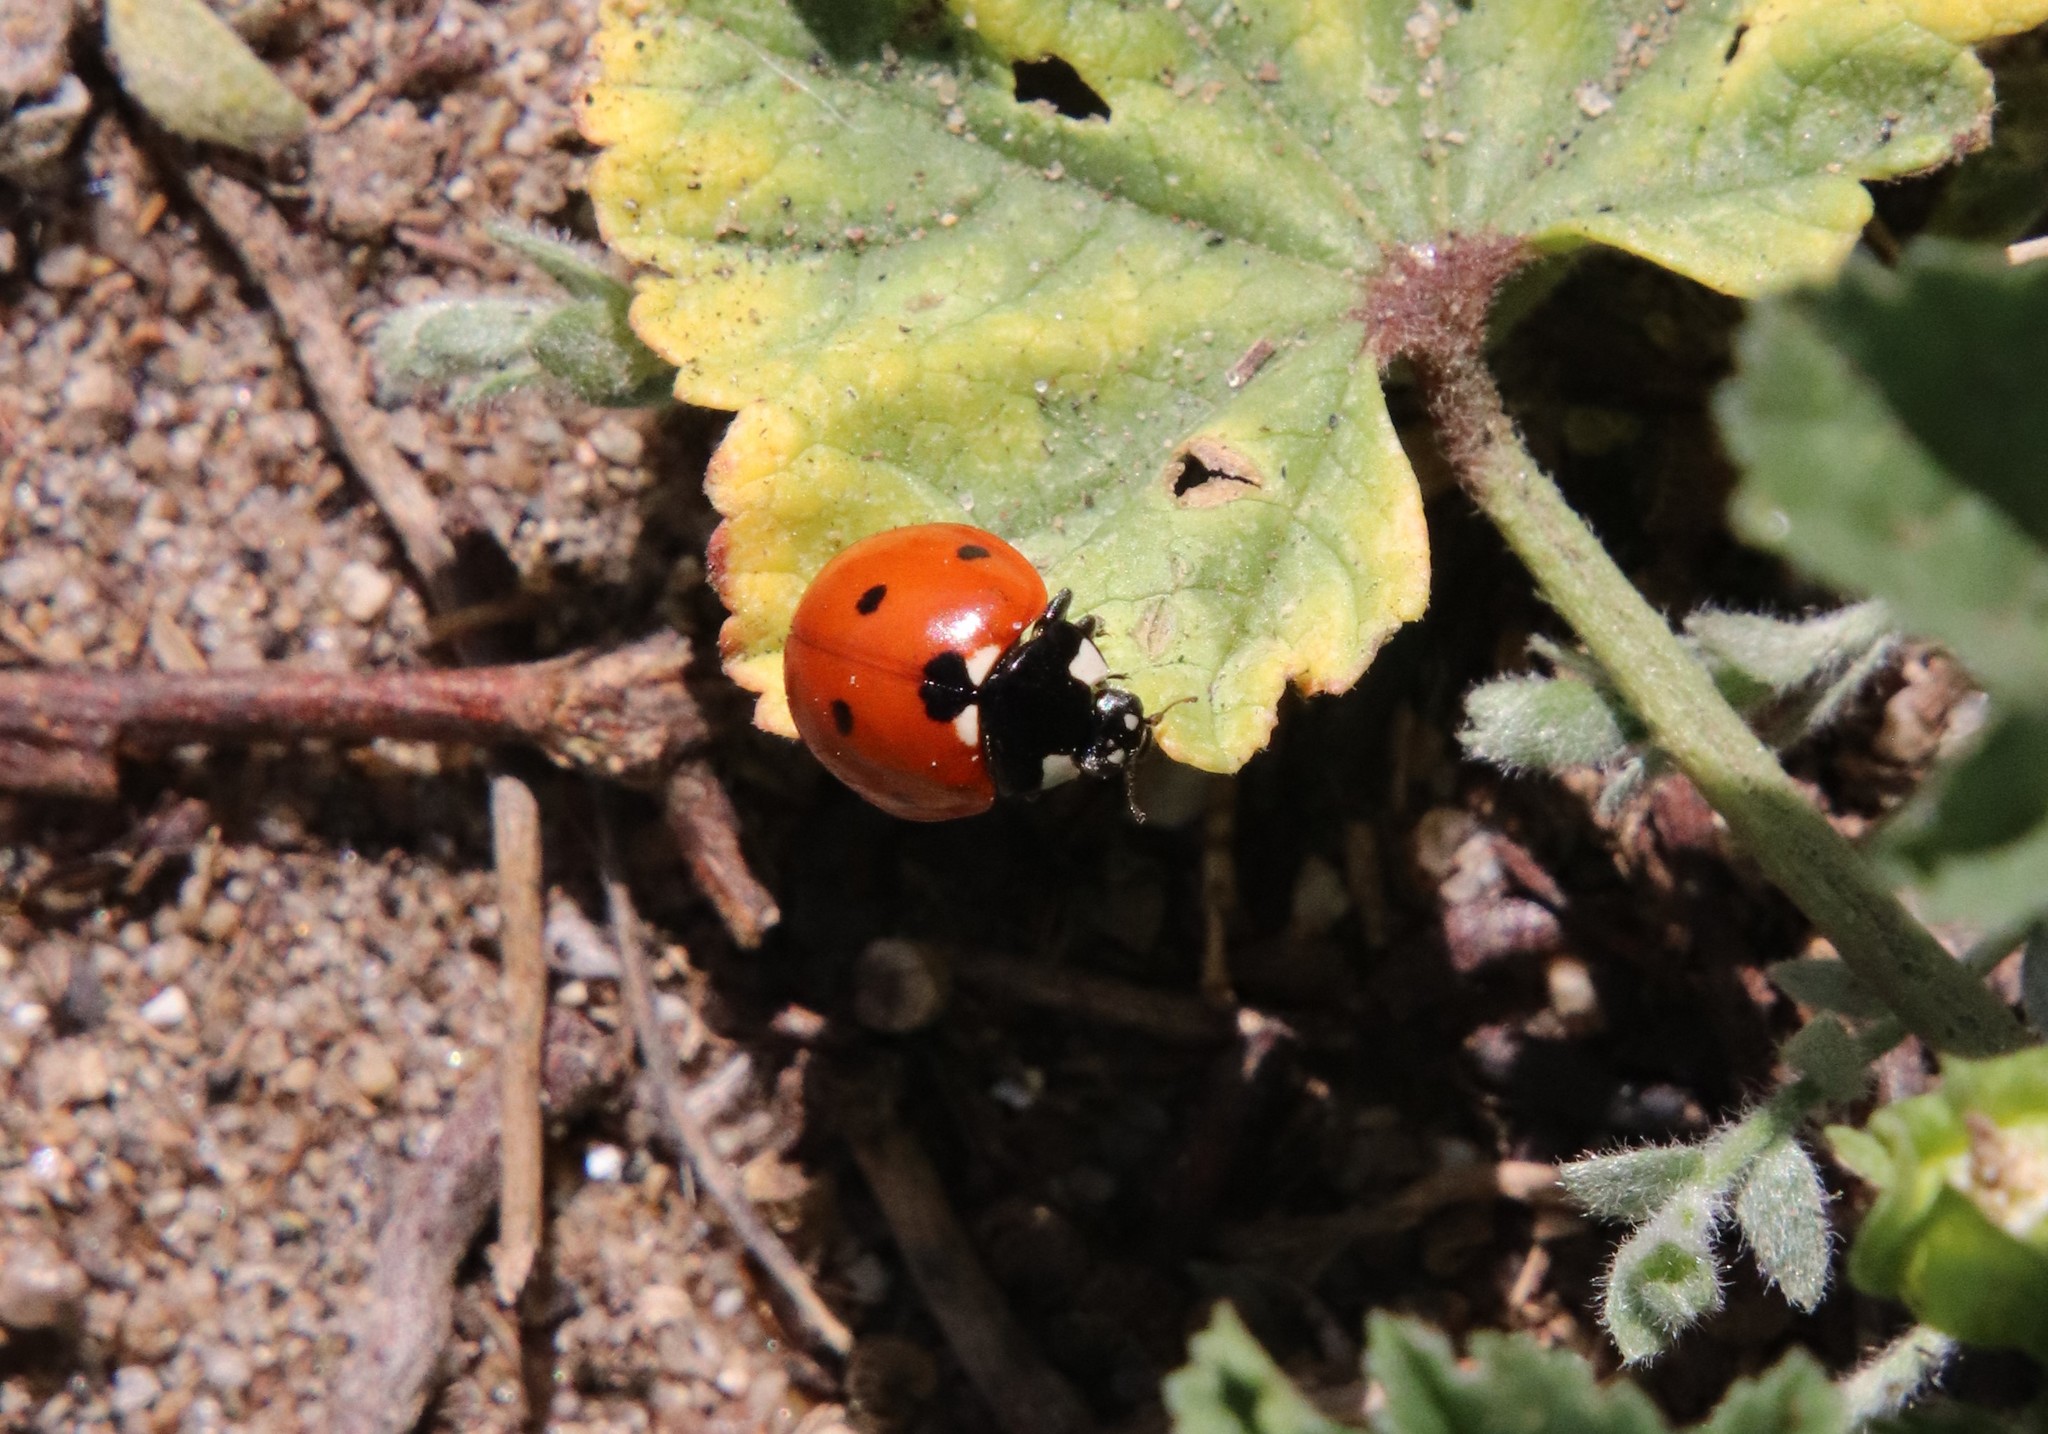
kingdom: Animalia
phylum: Arthropoda
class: Insecta
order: Coleoptera
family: Coccinellidae
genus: Coccinella
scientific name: Coccinella septempunctata
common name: Sevenspotted lady beetle
